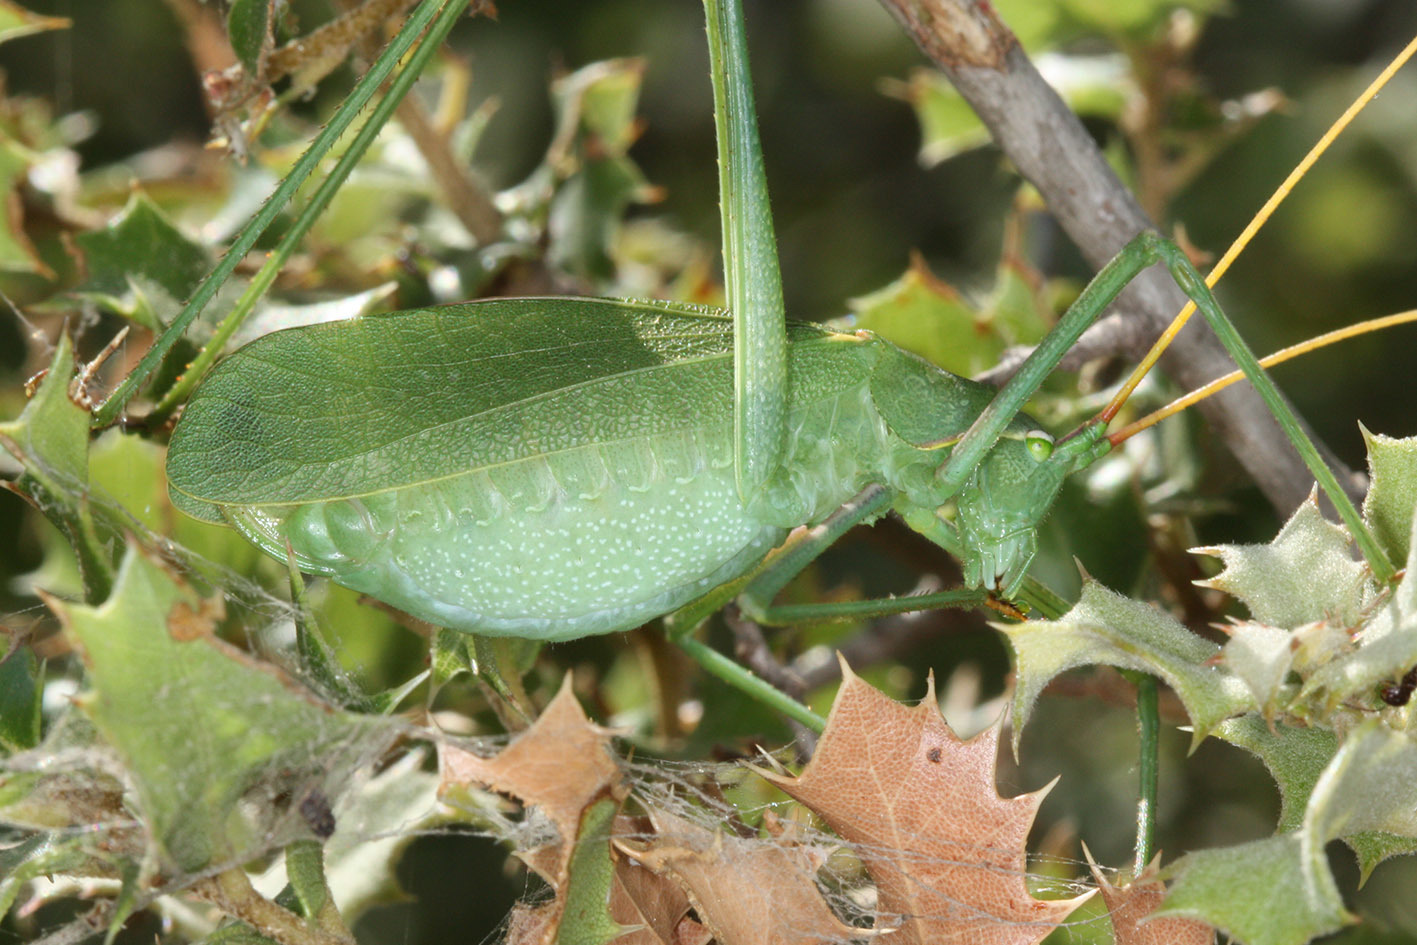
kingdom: Animalia
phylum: Arthropoda
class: Insecta
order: Orthoptera
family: Tettigoniidae
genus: Acrometopa
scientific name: Acrometopa syriaca
